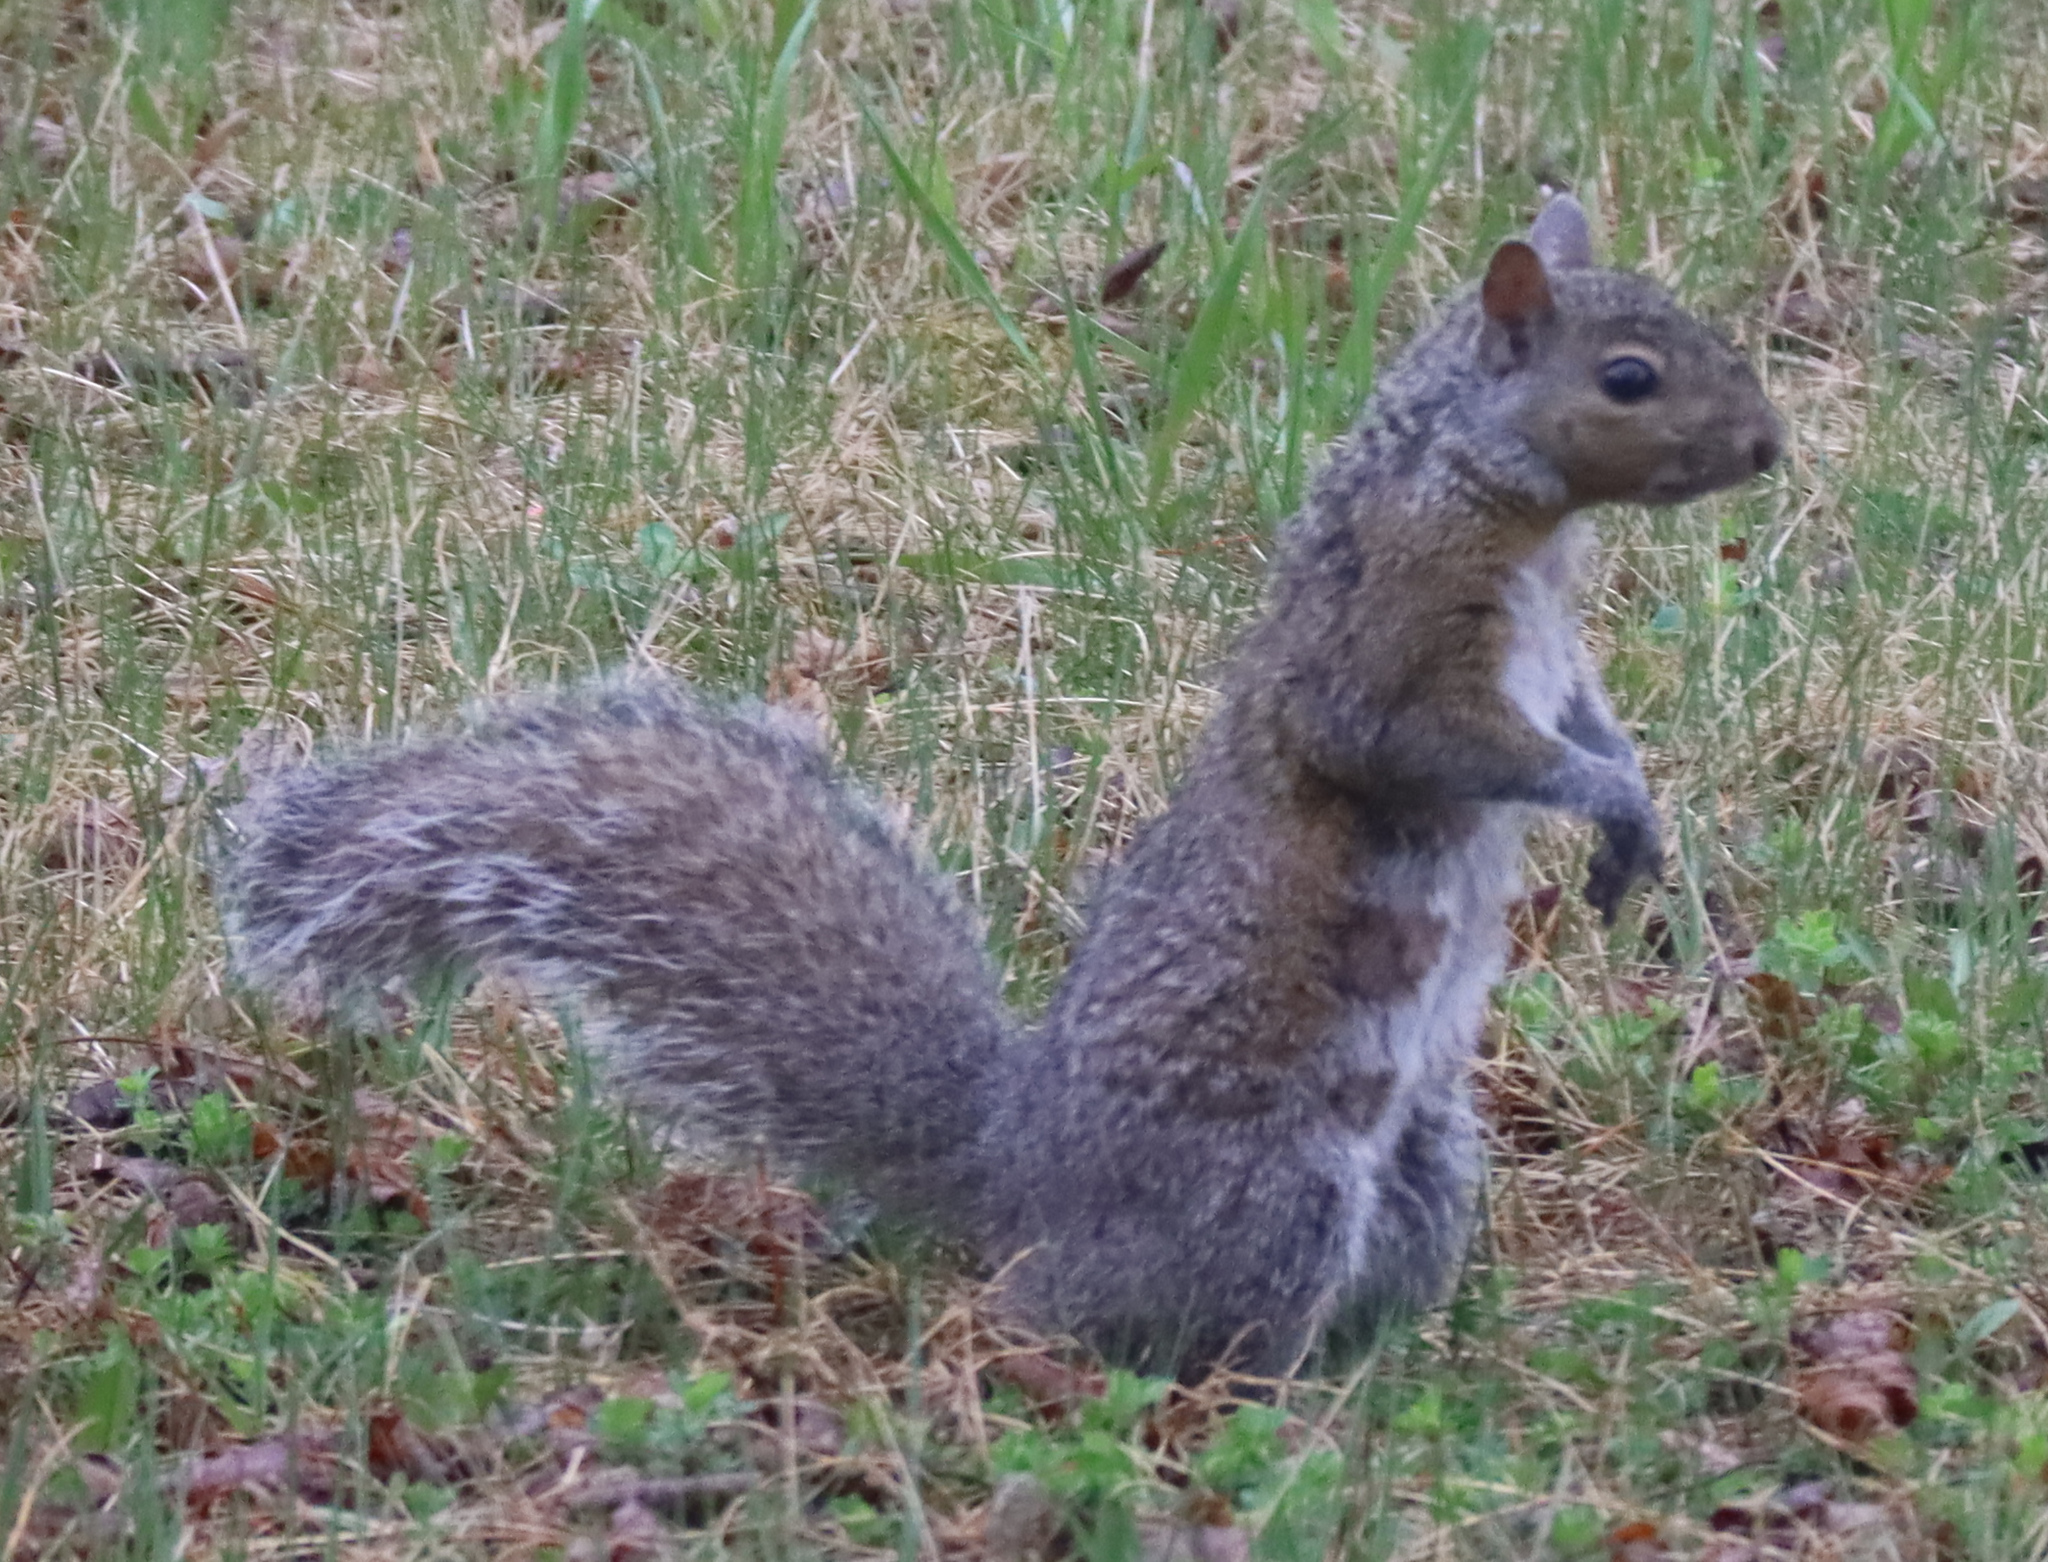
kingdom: Animalia
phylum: Chordata
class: Mammalia
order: Rodentia
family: Sciuridae
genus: Sciurus
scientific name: Sciurus carolinensis
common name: Eastern gray squirrel
